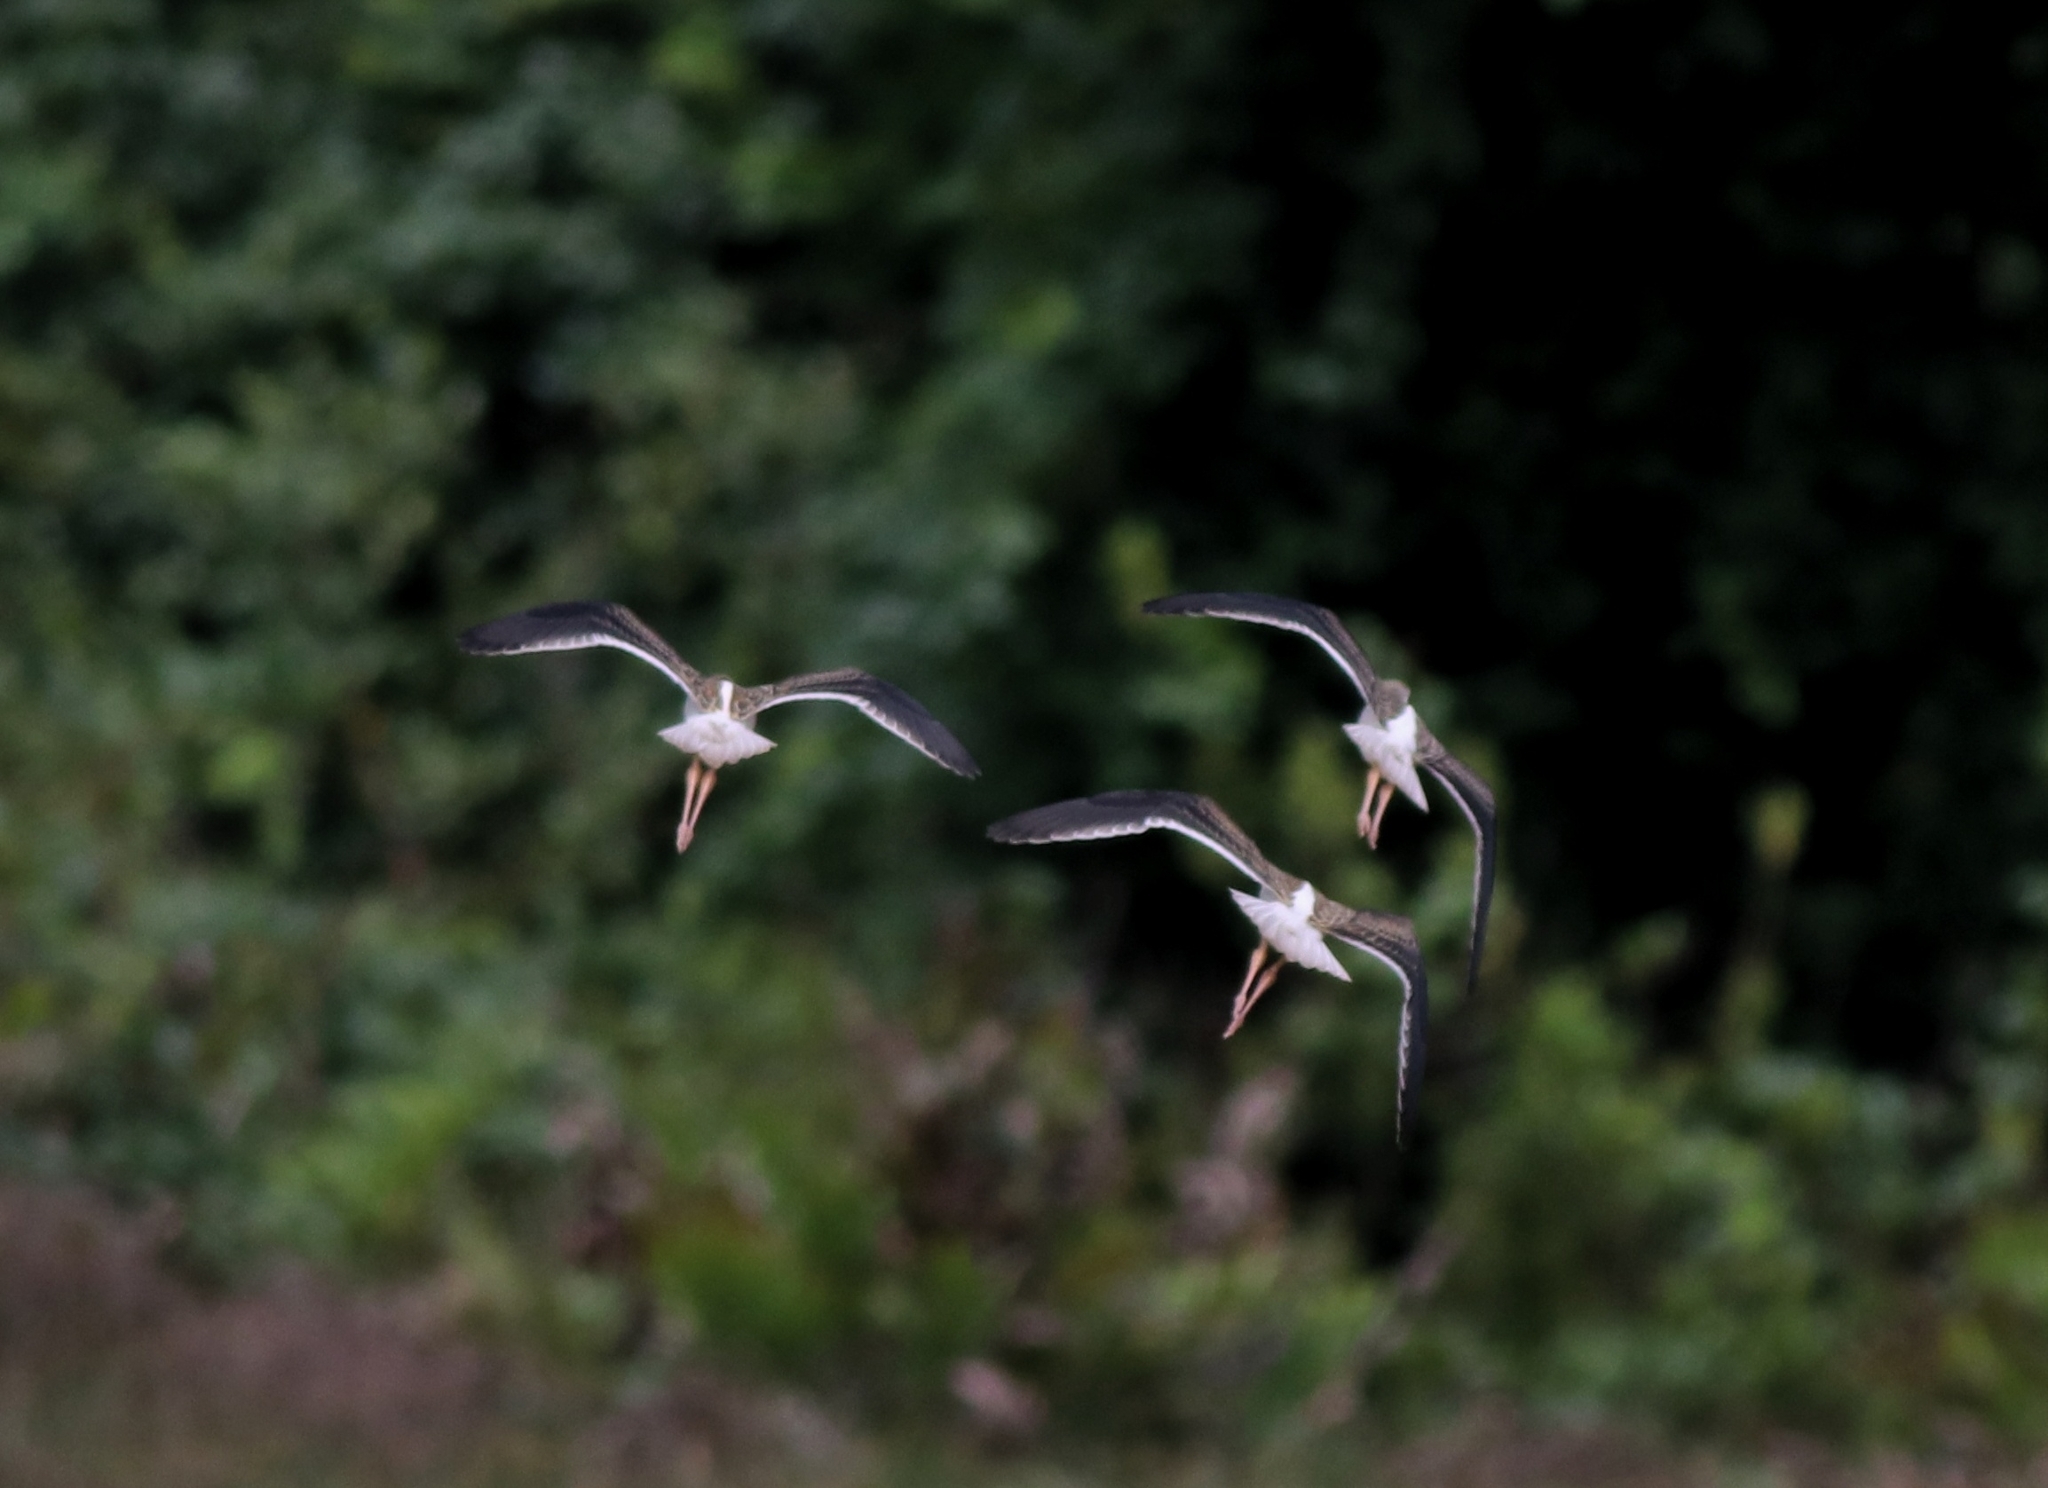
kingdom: Animalia
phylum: Chordata
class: Aves
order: Charadriiformes
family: Recurvirostridae
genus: Himantopus
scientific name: Himantopus himantopus
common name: Black-winged stilt
